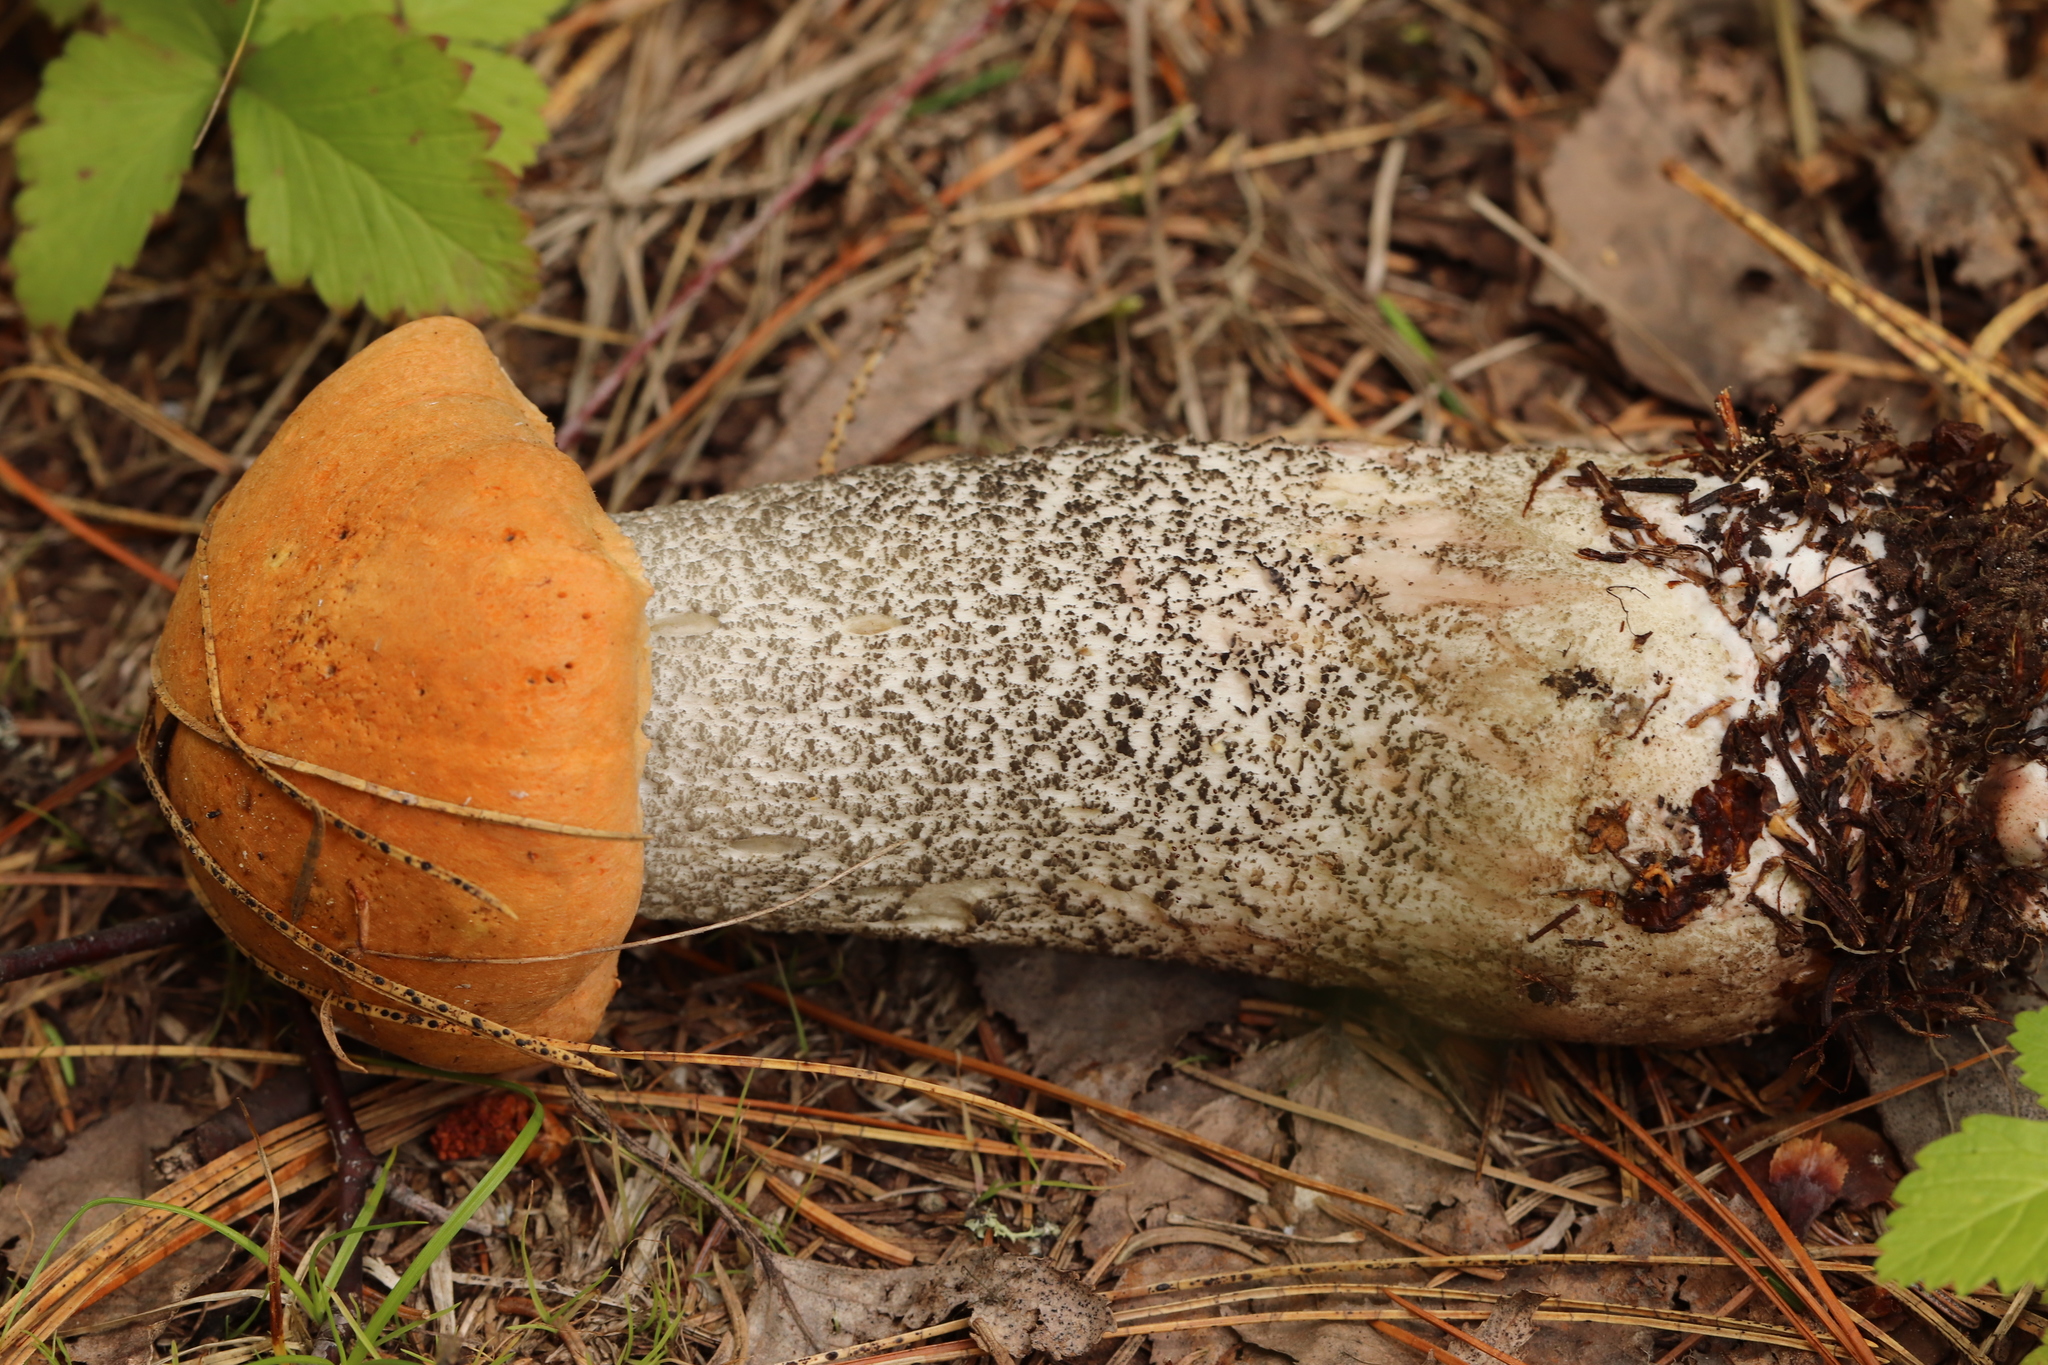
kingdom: Fungi
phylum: Basidiomycota
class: Agaricomycetes
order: Boletales
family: Boletaceae
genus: Leccinum
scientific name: Leccinum versipelle
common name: Orange birch bolete
